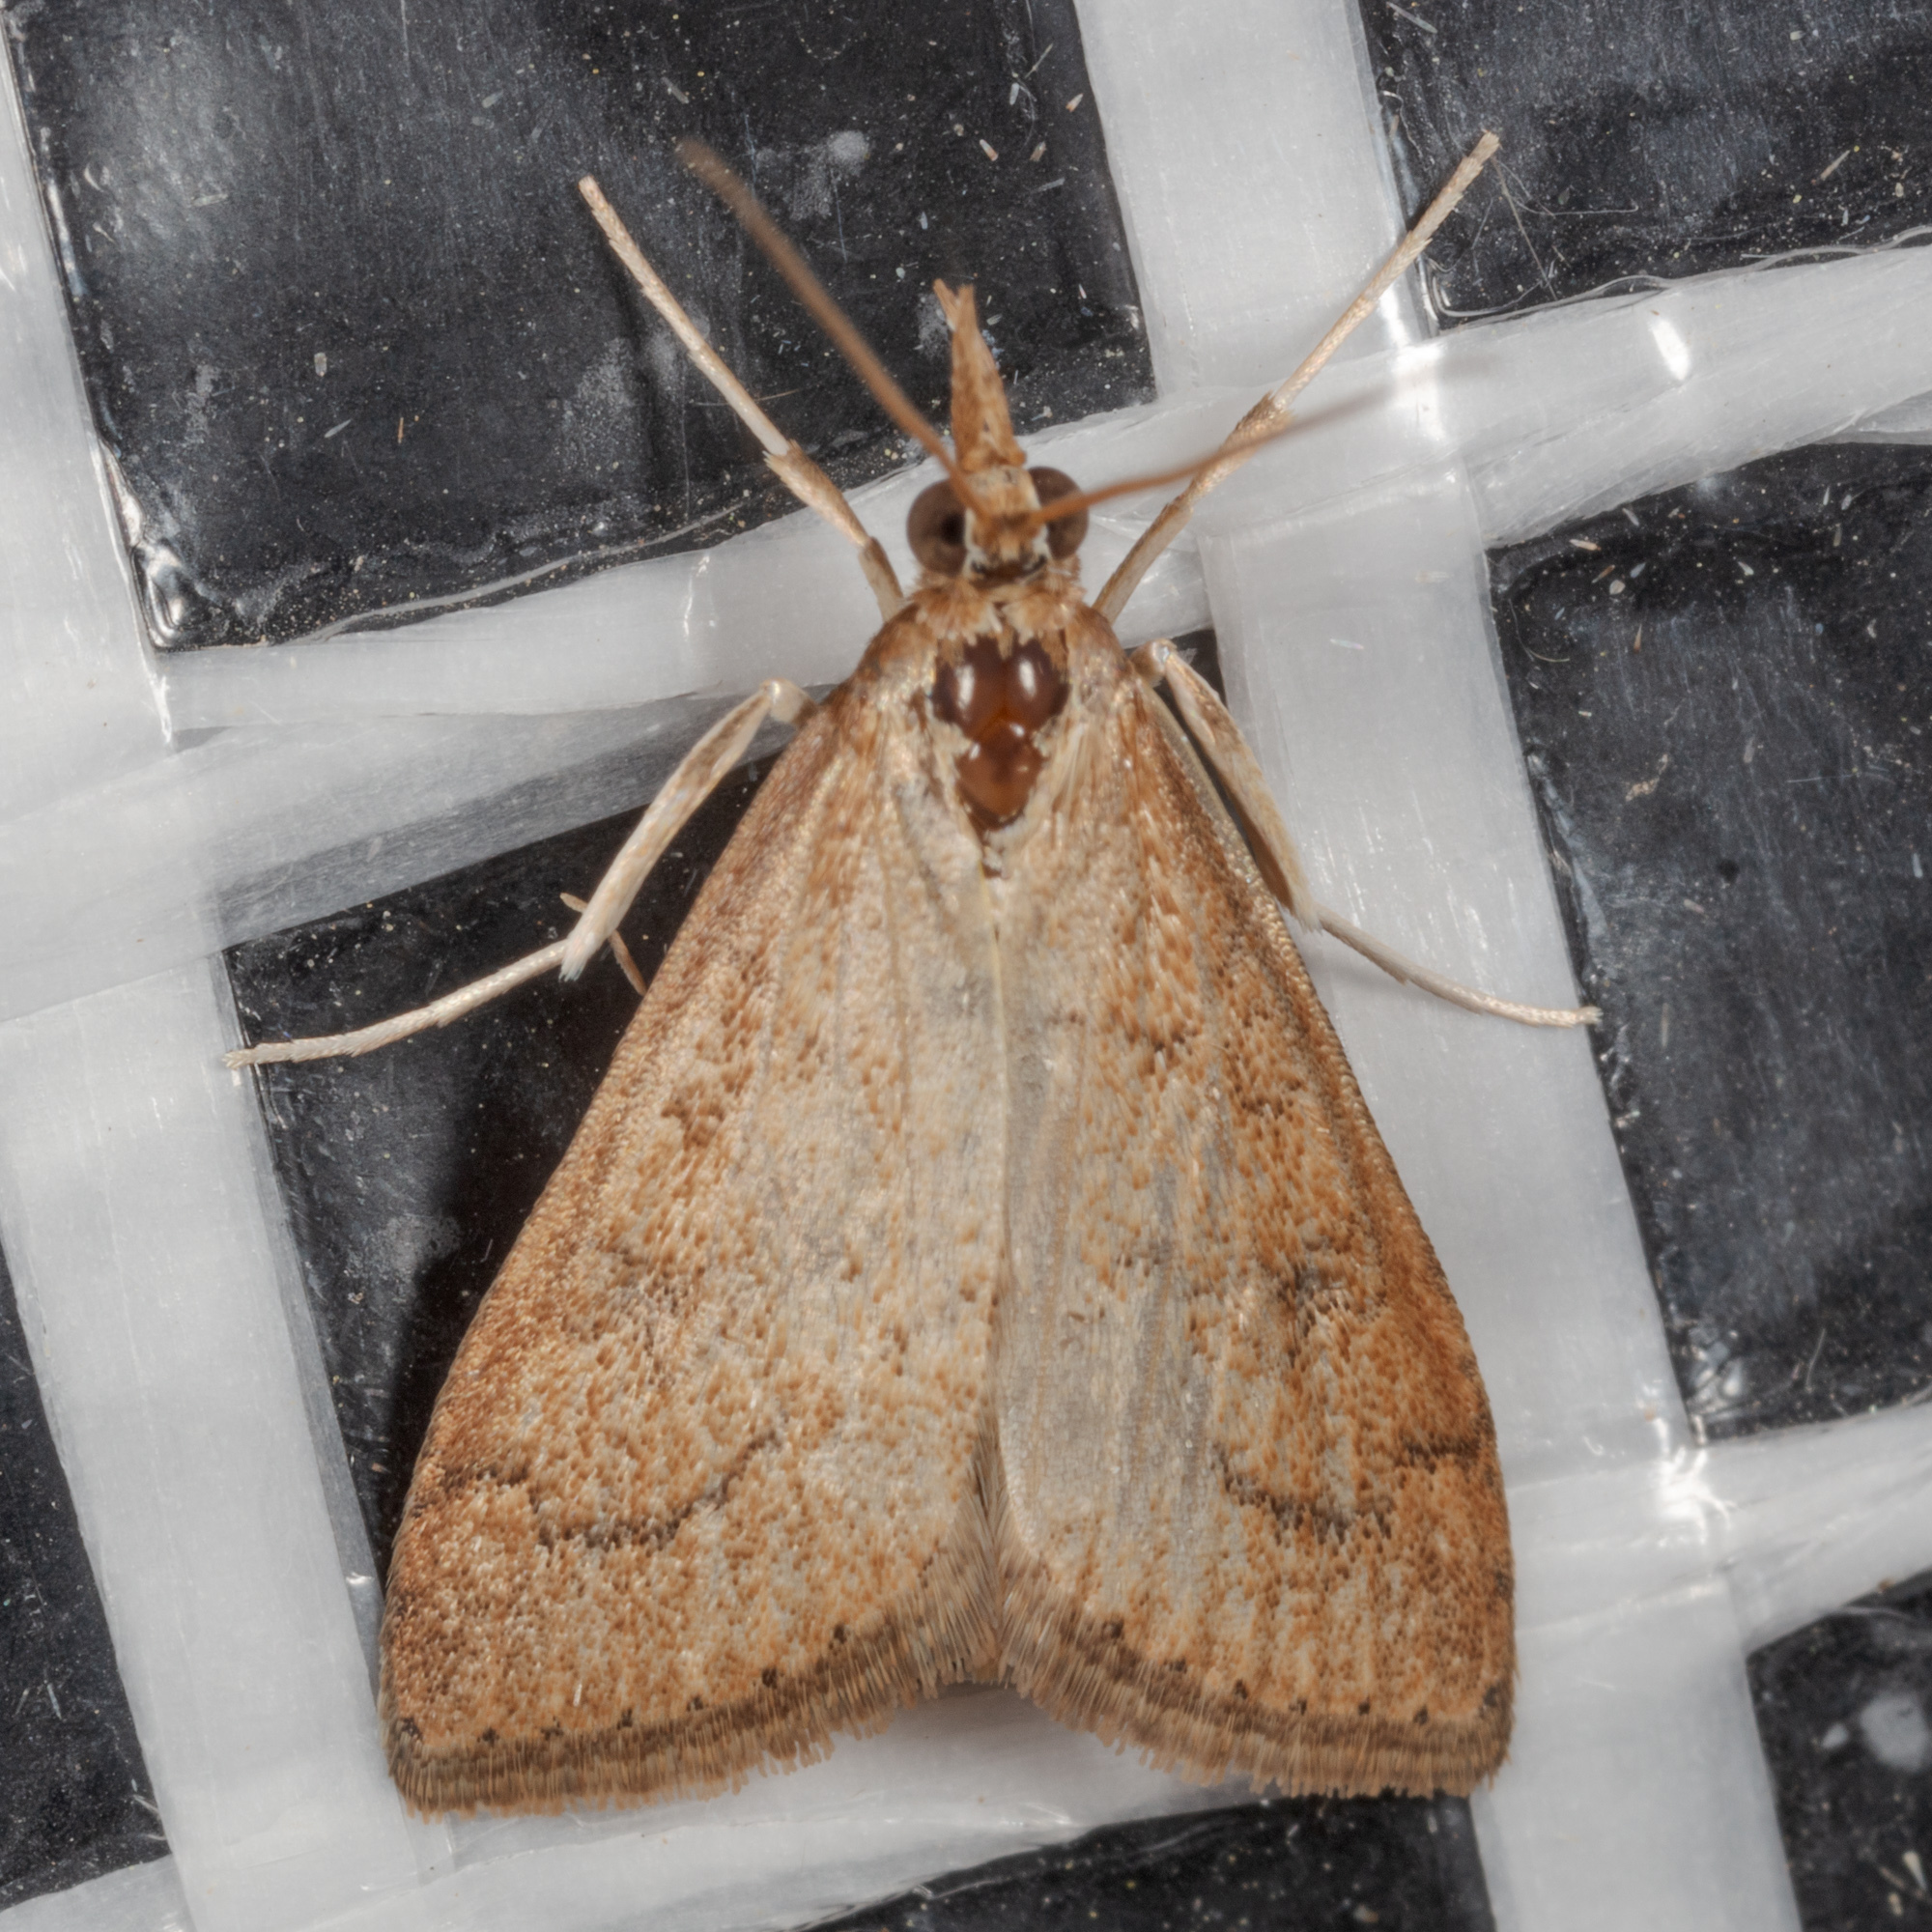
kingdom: Animalia
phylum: Arthropoda
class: Insecta
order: Lepidoptera
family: Crambidae
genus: Udea
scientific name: Udea rubigalis
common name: Celery leaftier moth
